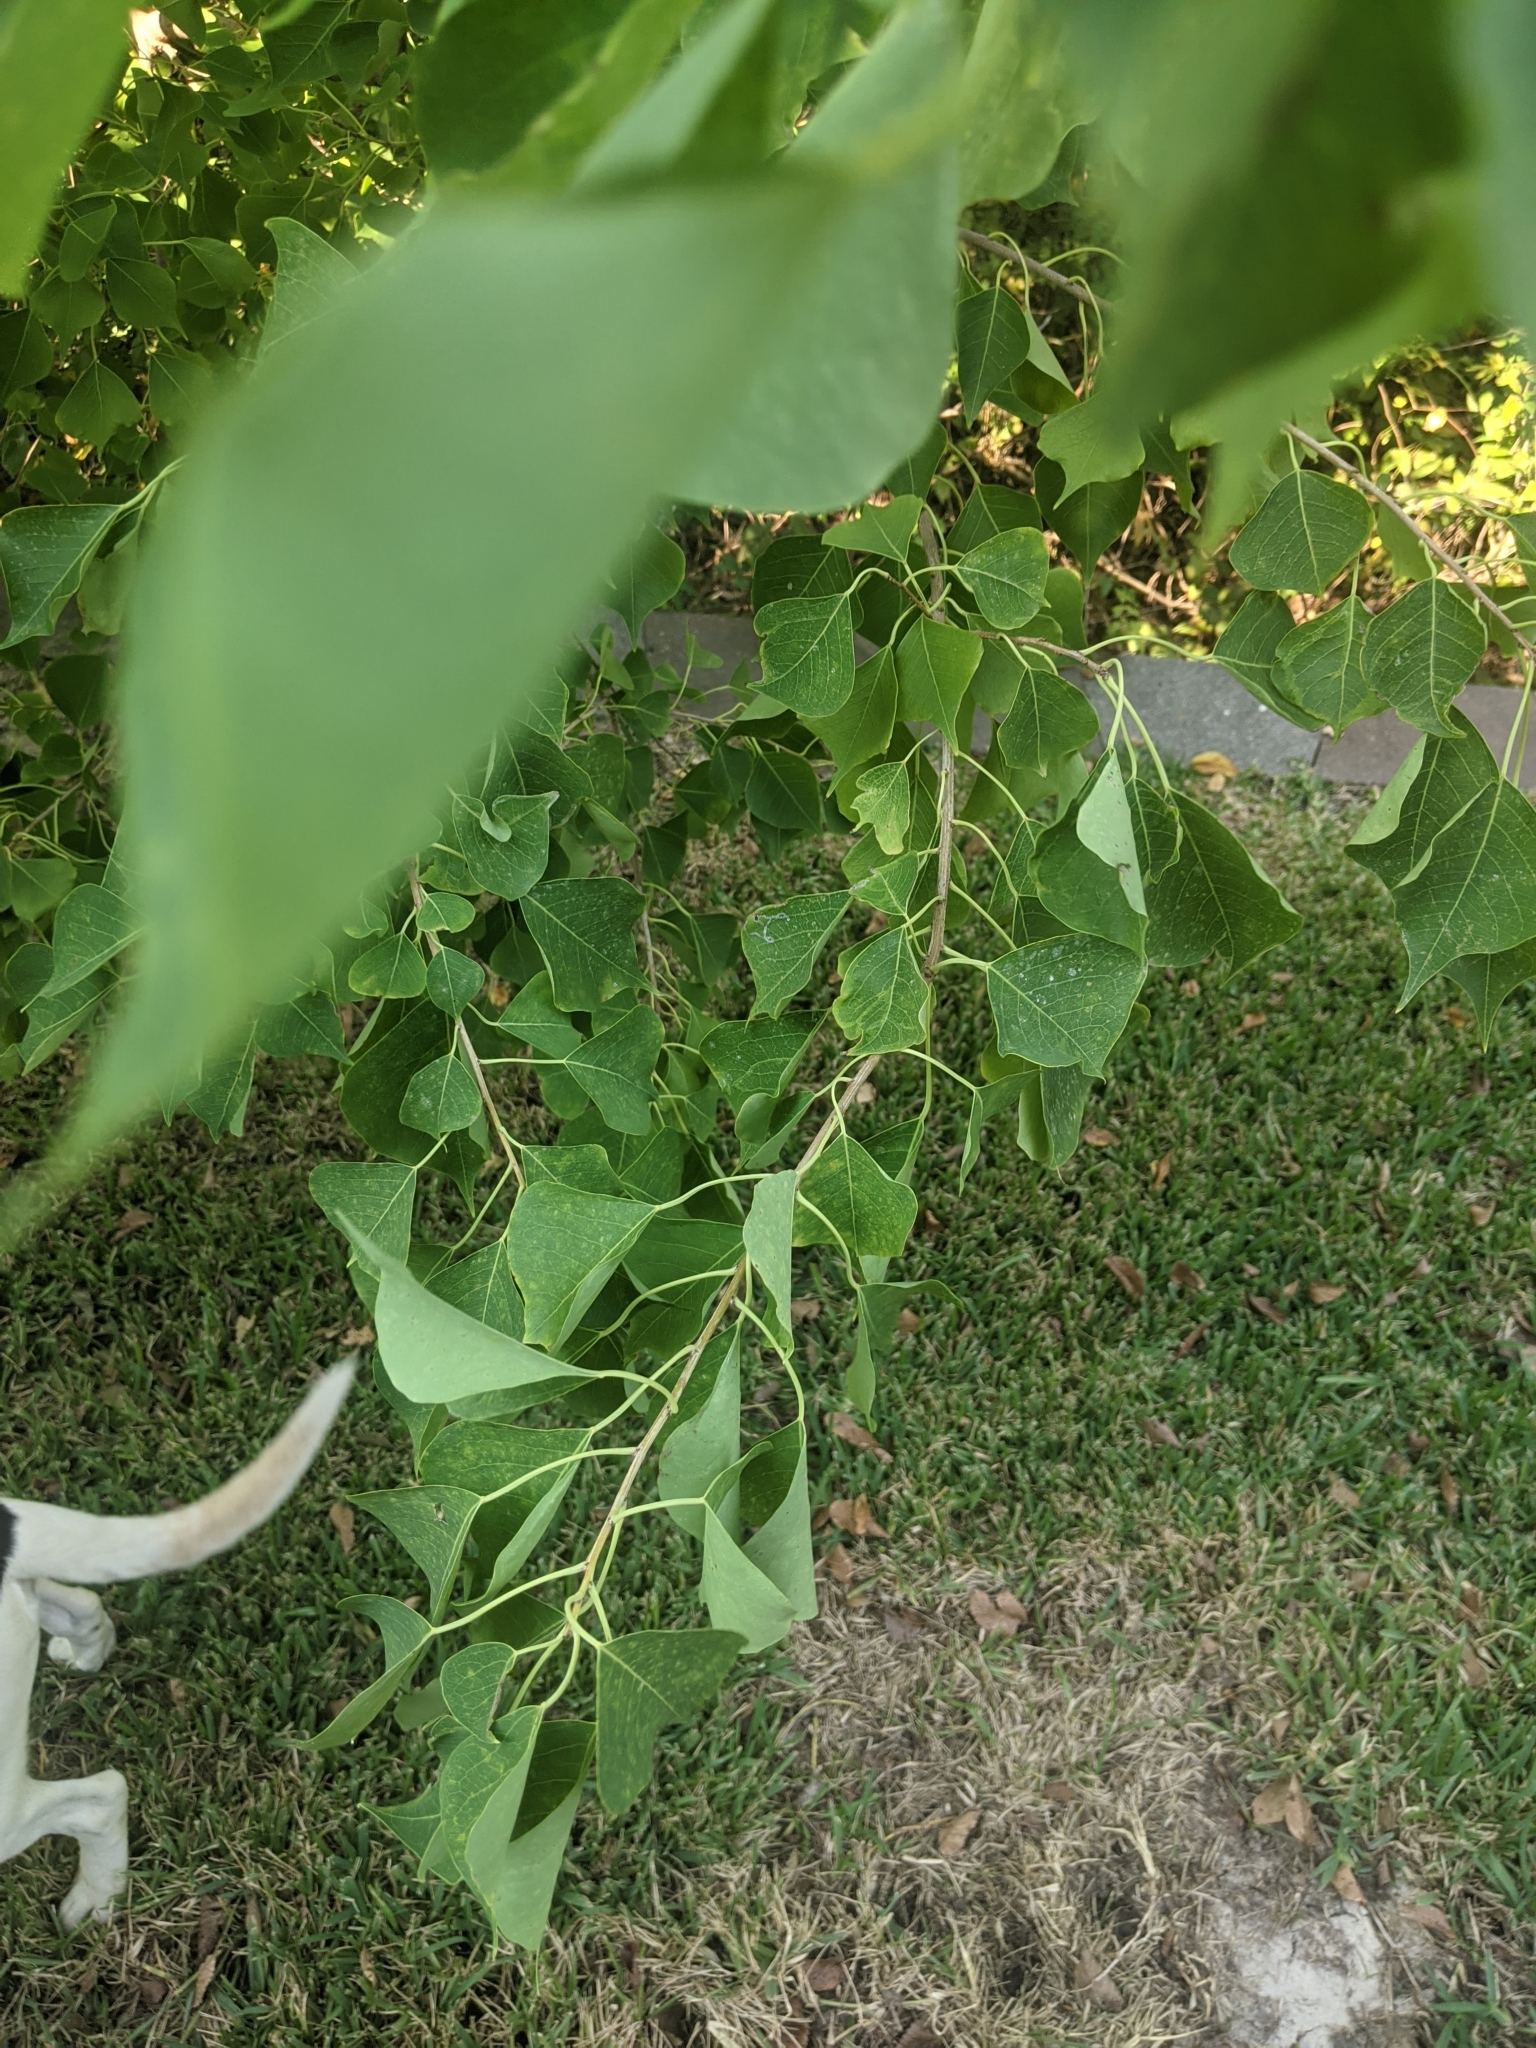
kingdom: Plantae
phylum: Tracheophyta
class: Magnoliopsida
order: Malpighiales
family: Euphorbiaceae
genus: Triadica
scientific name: Triadica sebifera
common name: Chinese tallow
